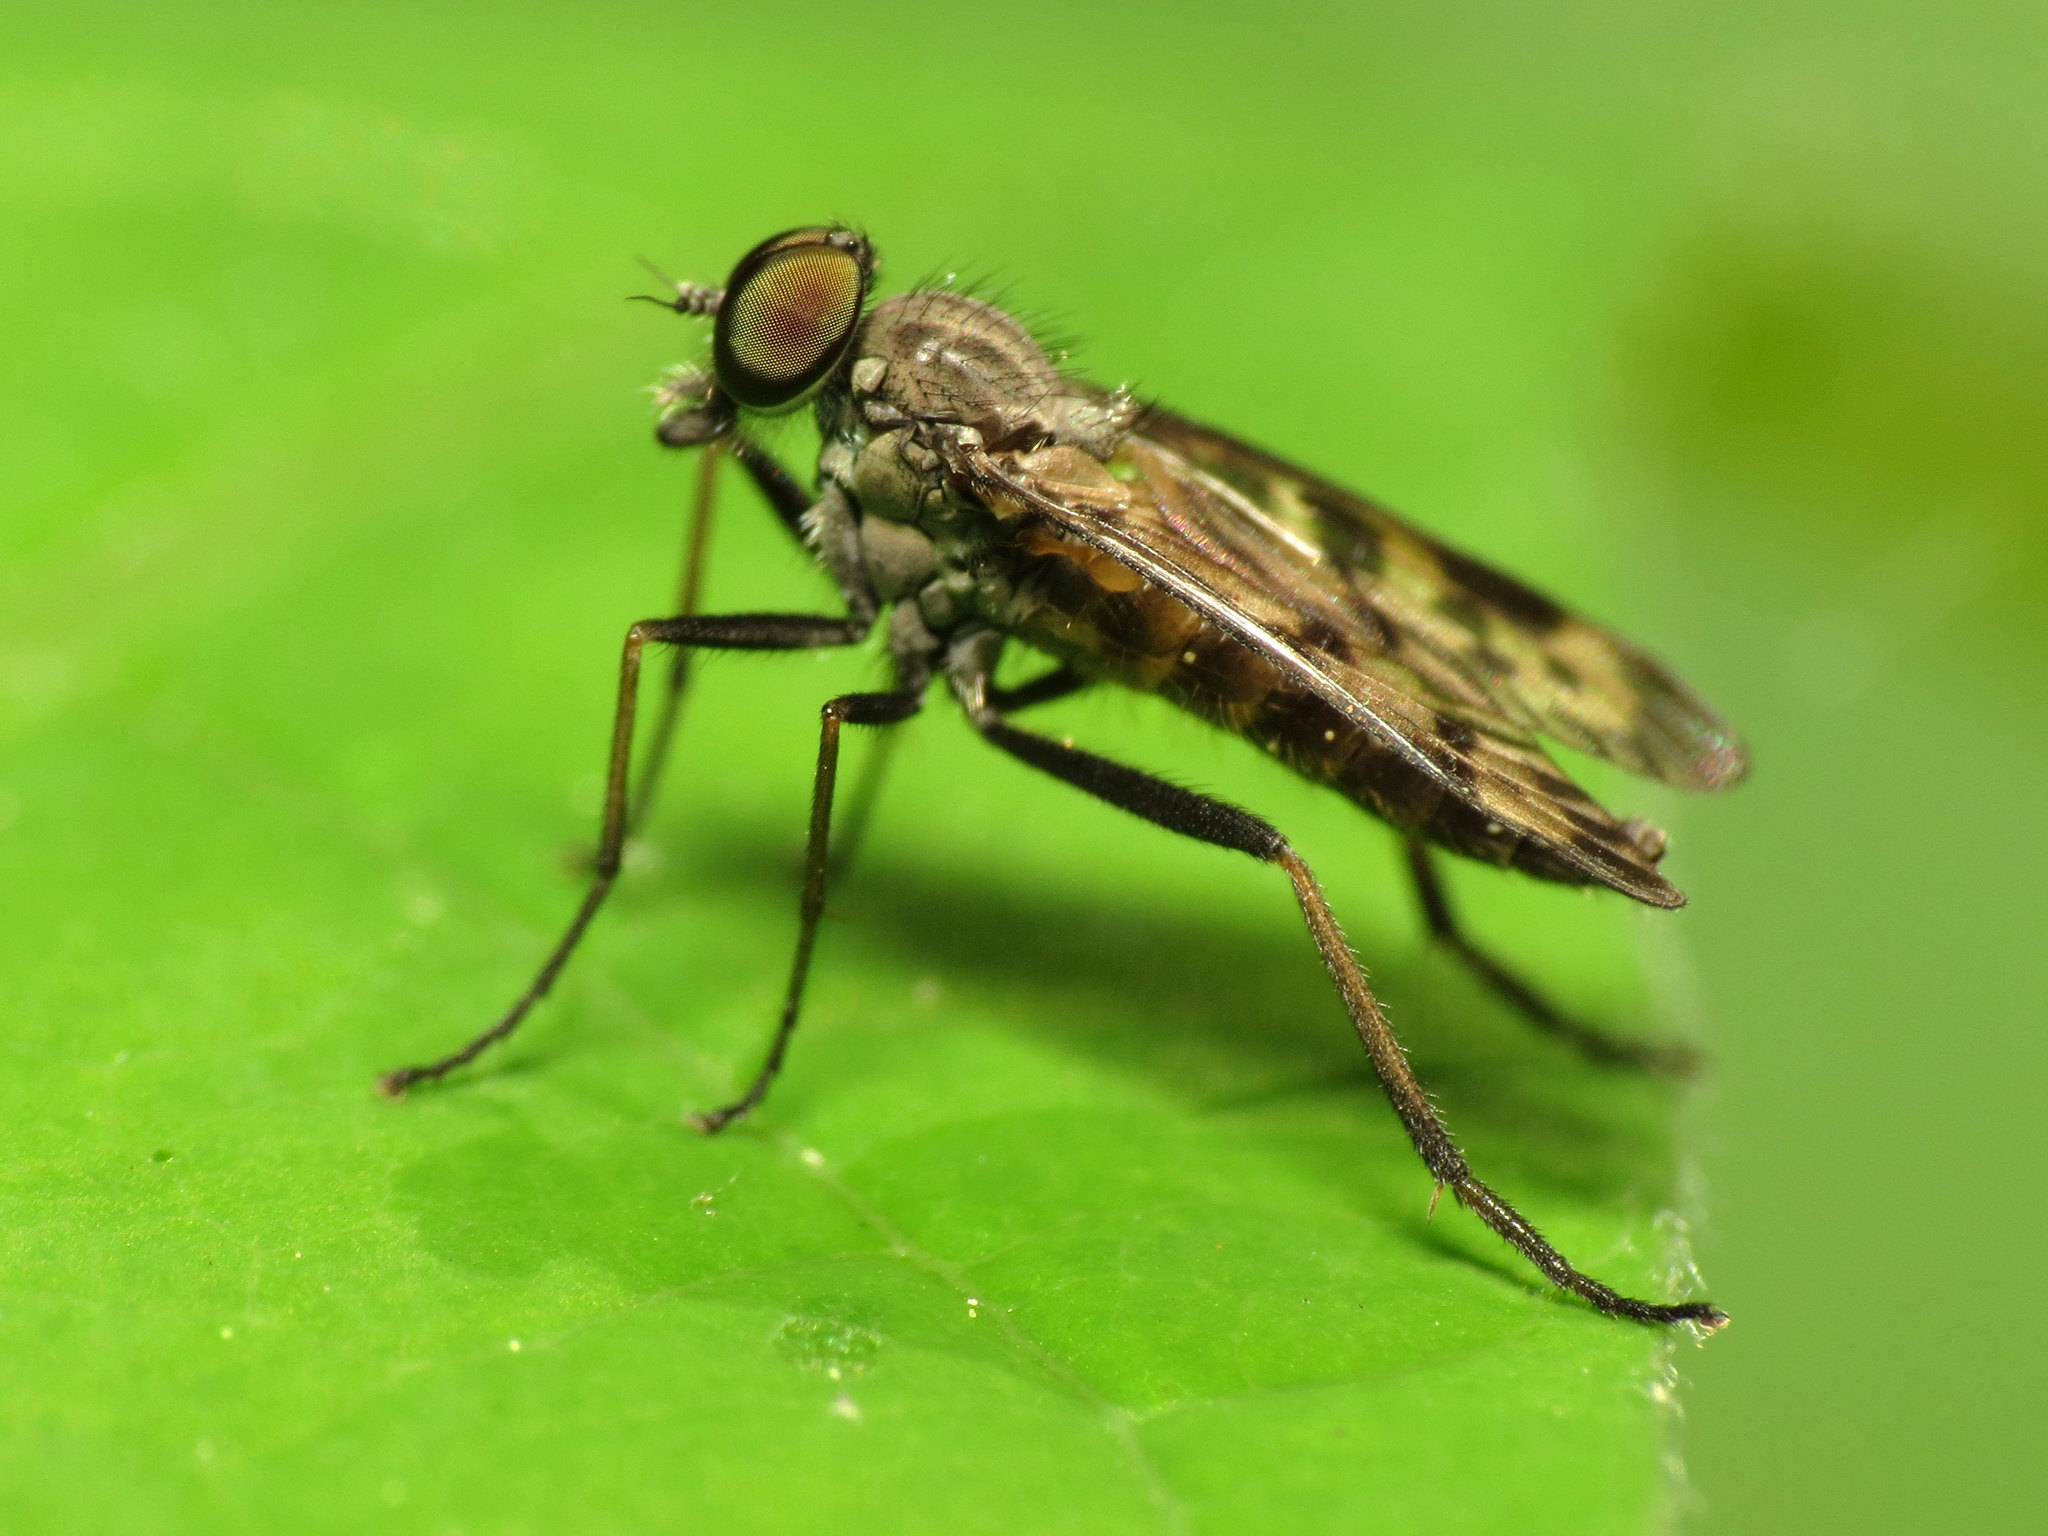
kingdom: Animalia
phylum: Arthropoda
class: Insecta
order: Diptera
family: Rhagionidae
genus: Rhagio
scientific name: Rhagio punctipennis
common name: Lesser variegated snipe fly
